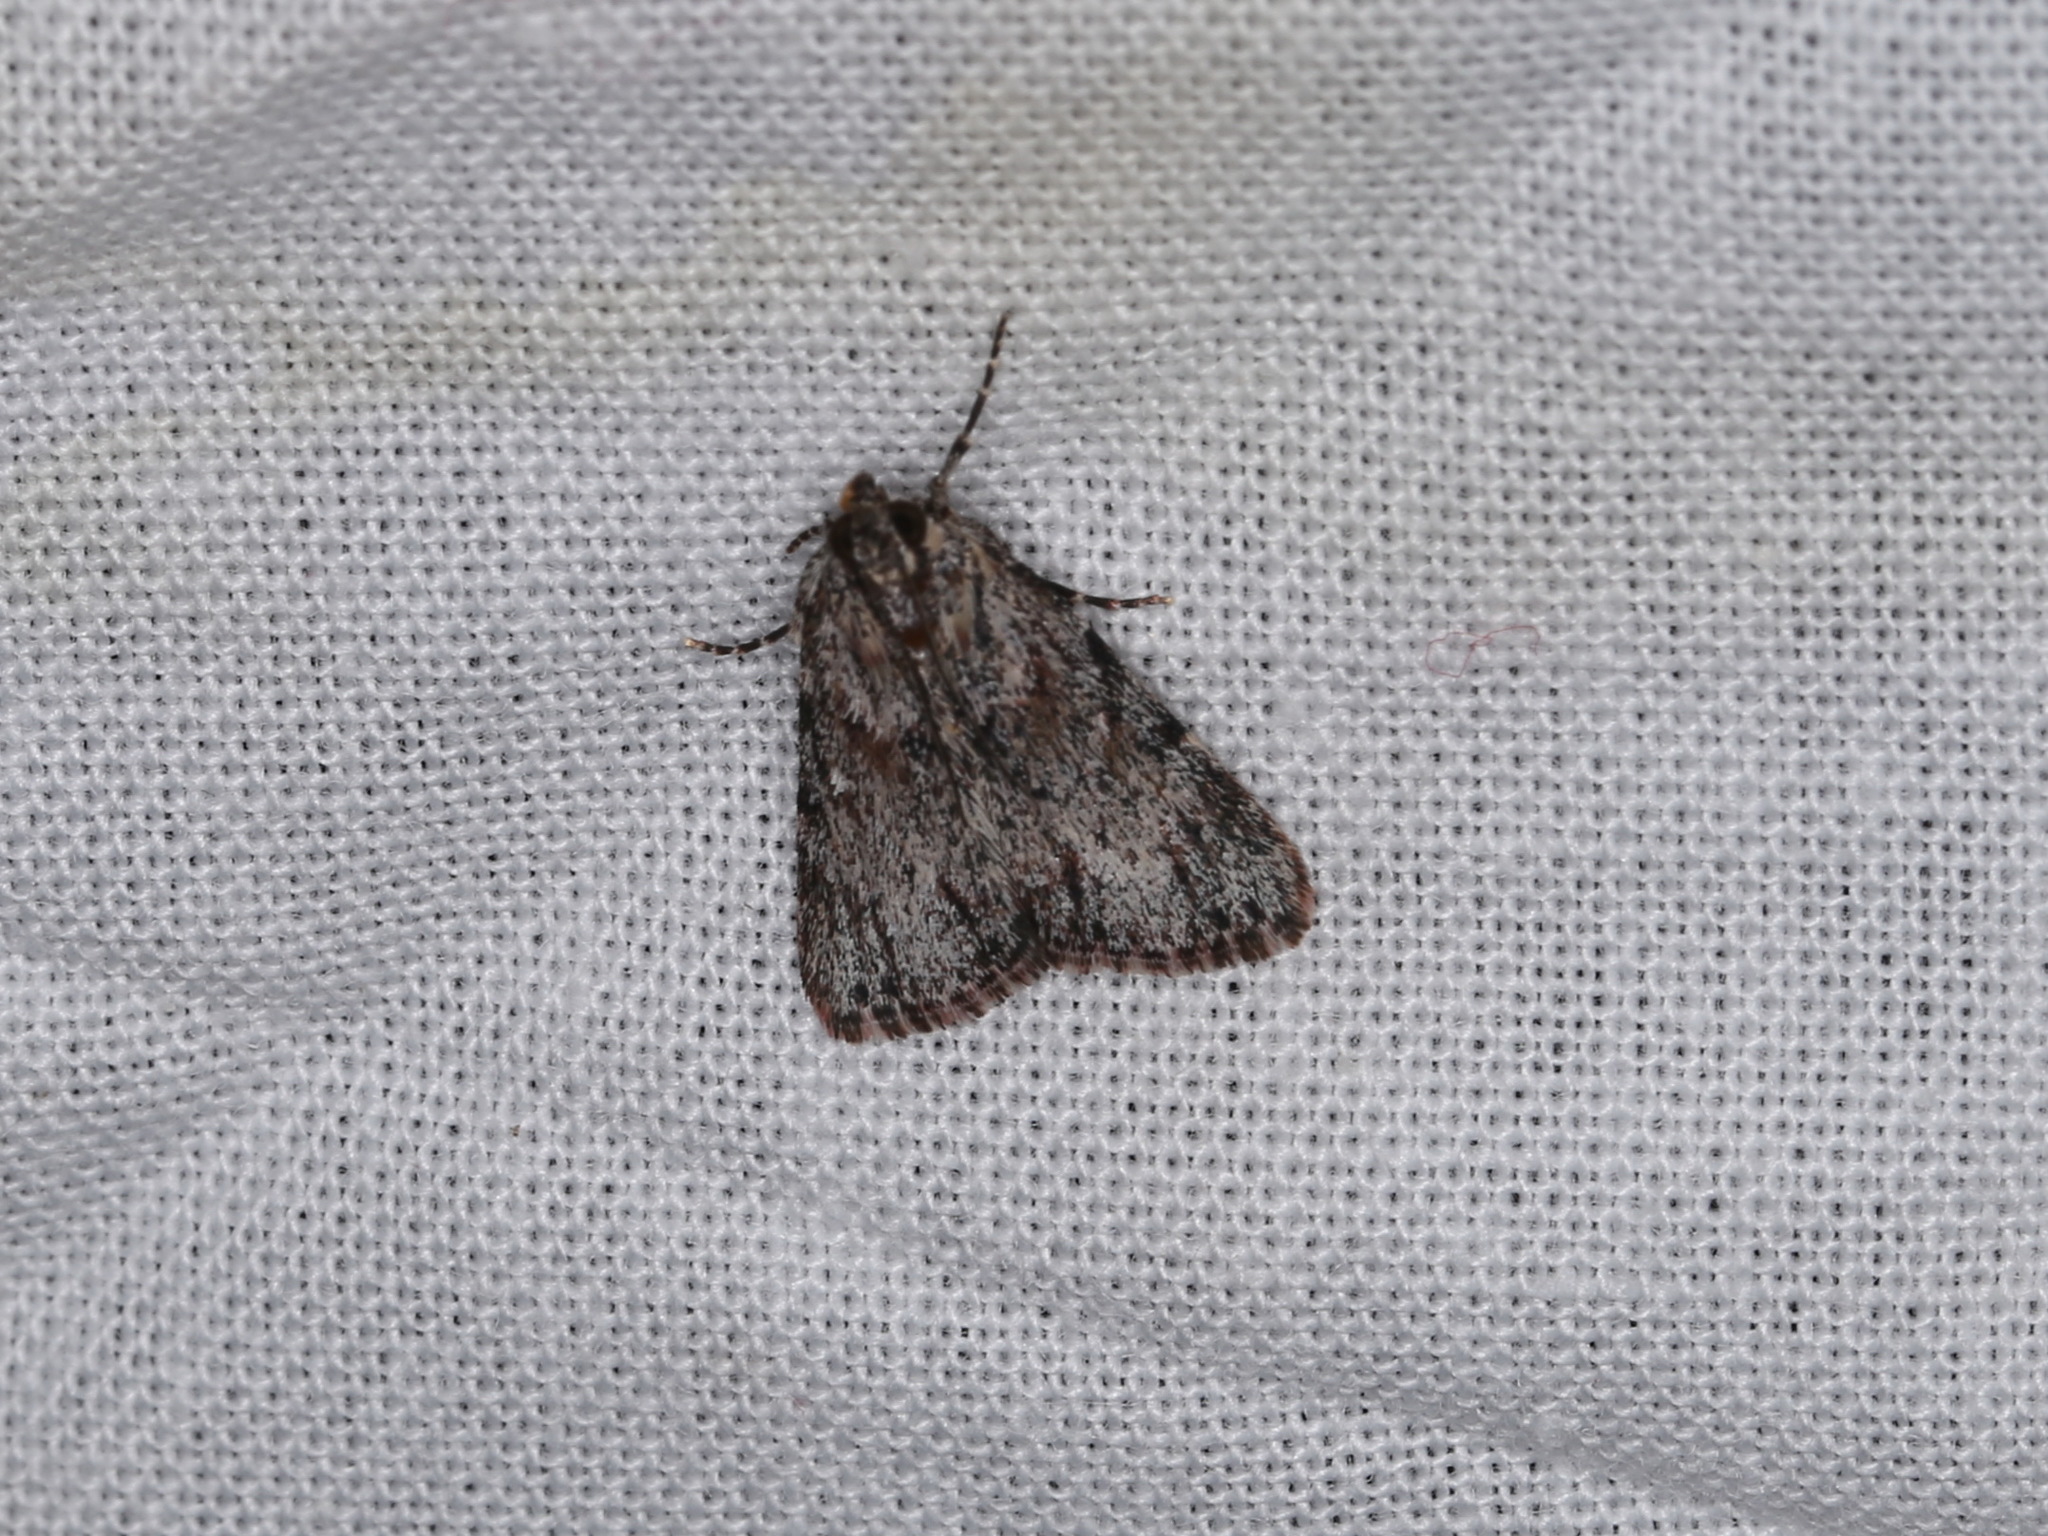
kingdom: Animalia
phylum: Arthropoda
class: Insecta
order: Lepidoptera
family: Pyralidae
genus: Spectrotrota
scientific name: Spectrotrota fimbrialis
